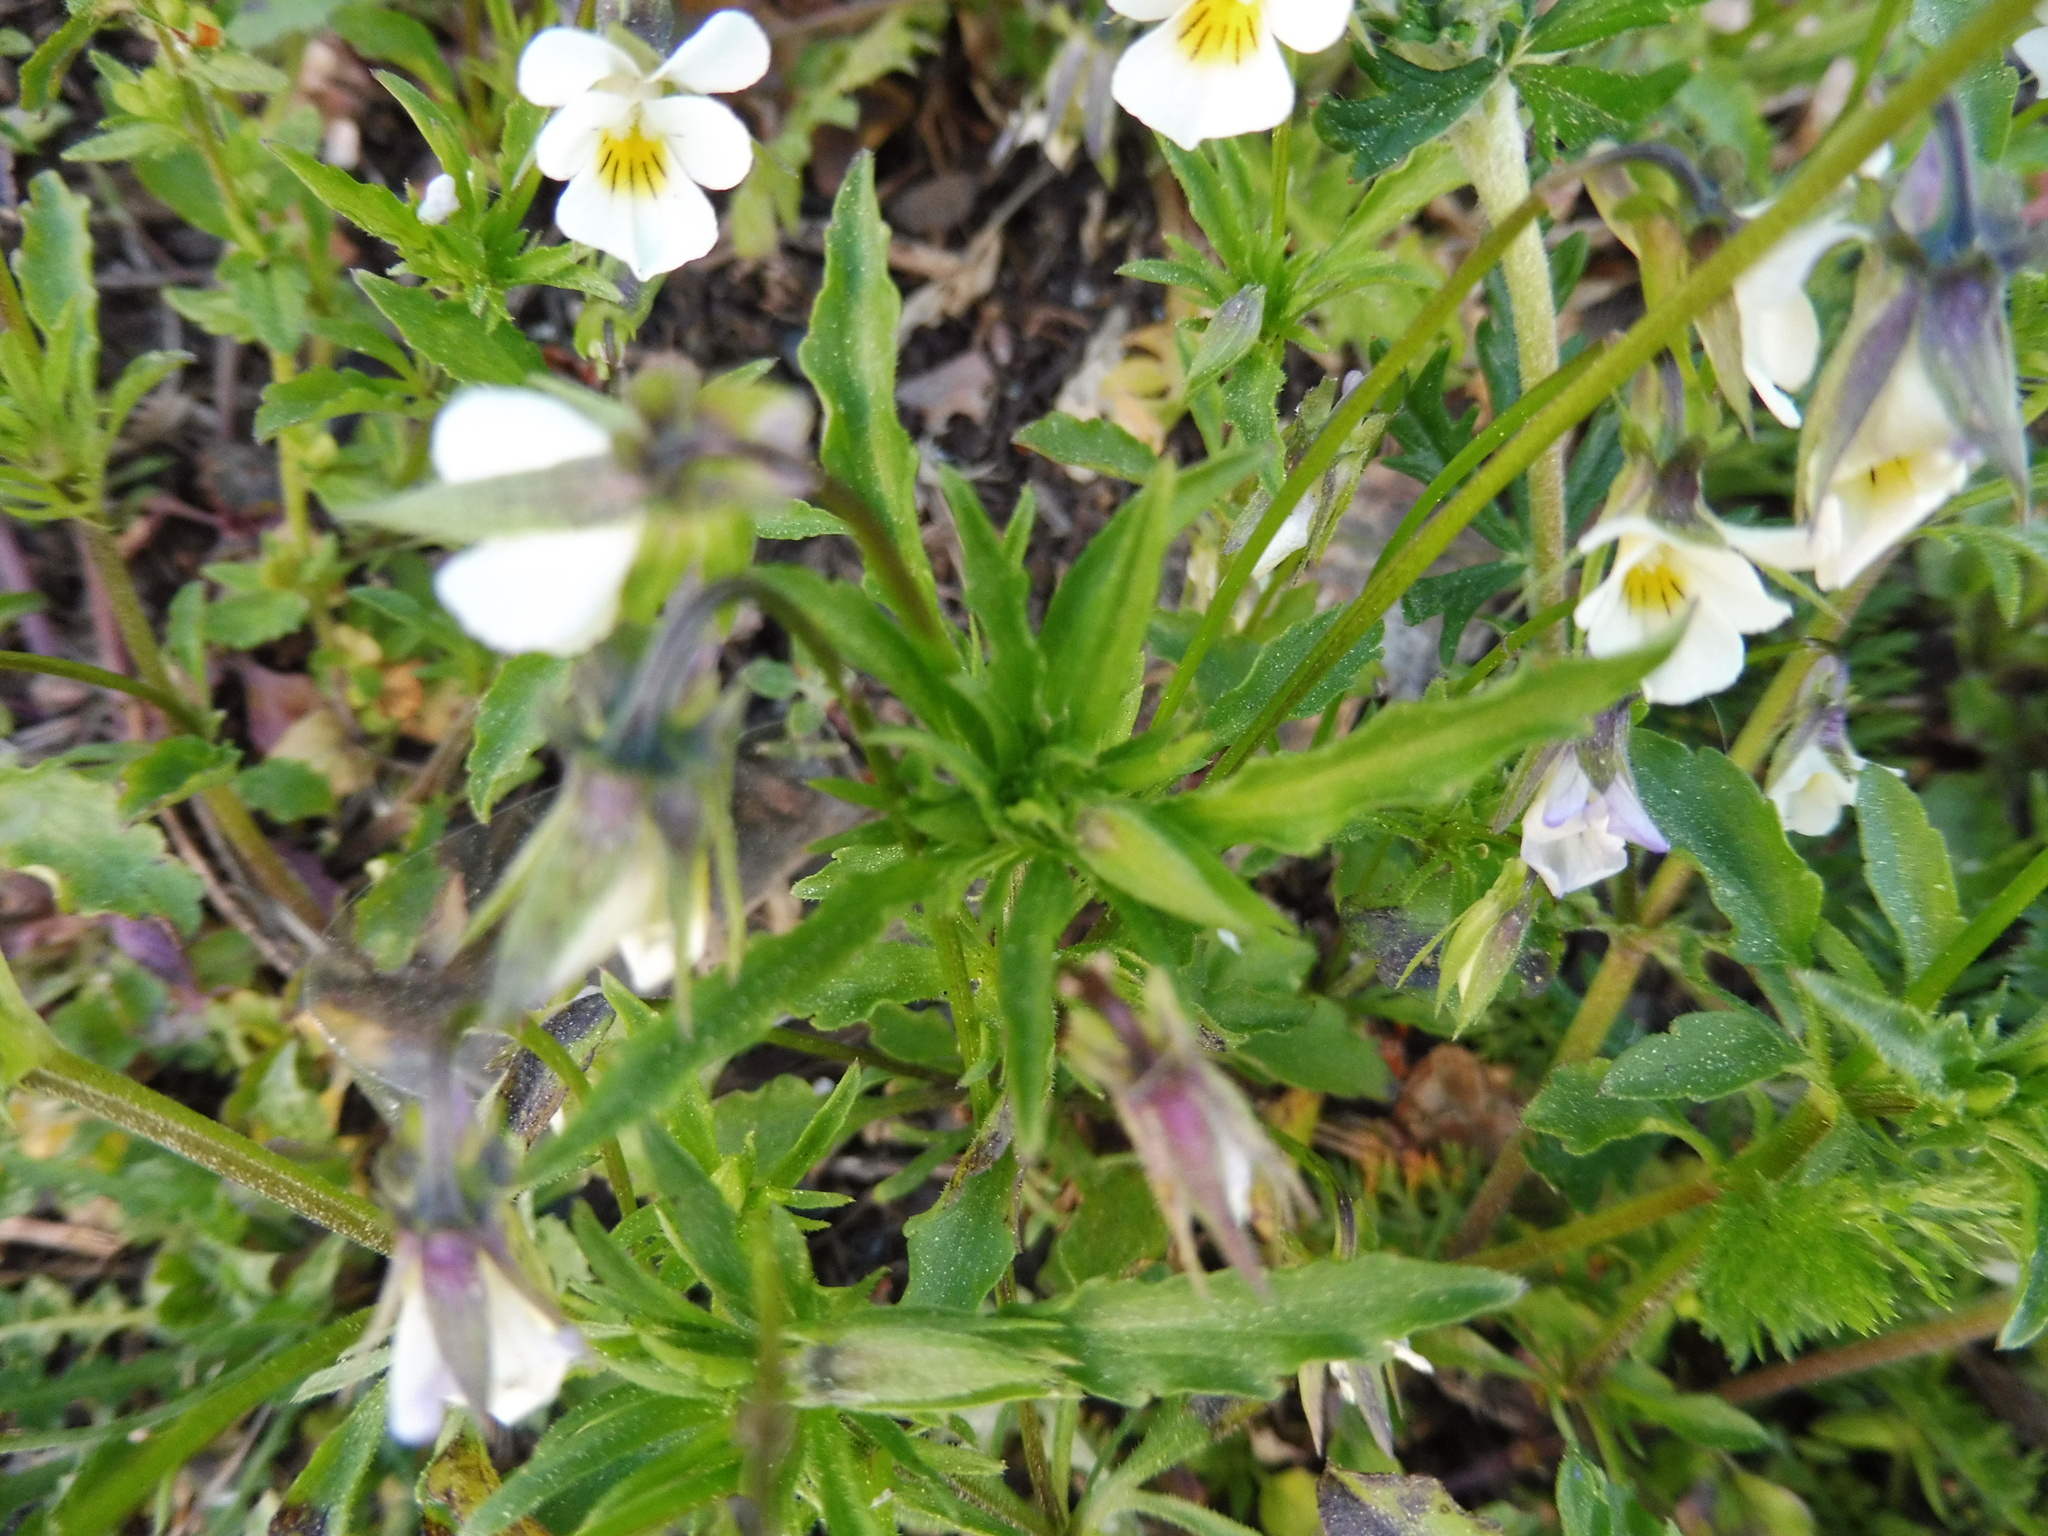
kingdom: Plantae
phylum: Tracheophyta
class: Magnoliopsida
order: Malpighiales
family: Violaceae
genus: Viola
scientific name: Viola arvensis
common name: Field pansy
